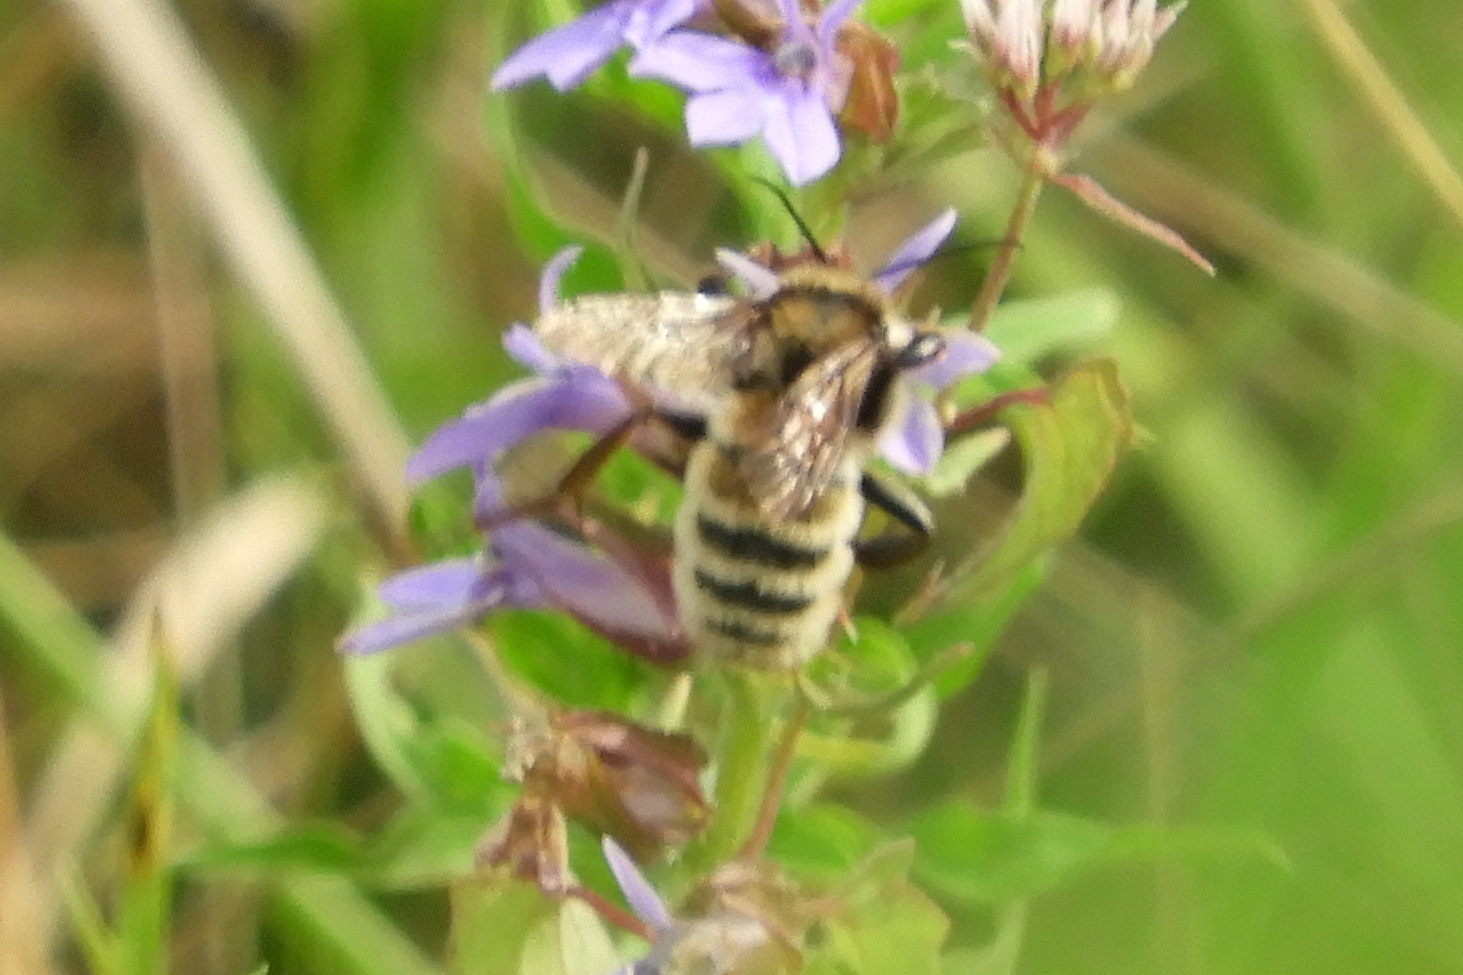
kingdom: Animalia
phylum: Arthropoda
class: Insecta
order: Hymenoptera
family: Apidae
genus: Bombus
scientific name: Bombus pensylvanicus
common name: Bumble bee
